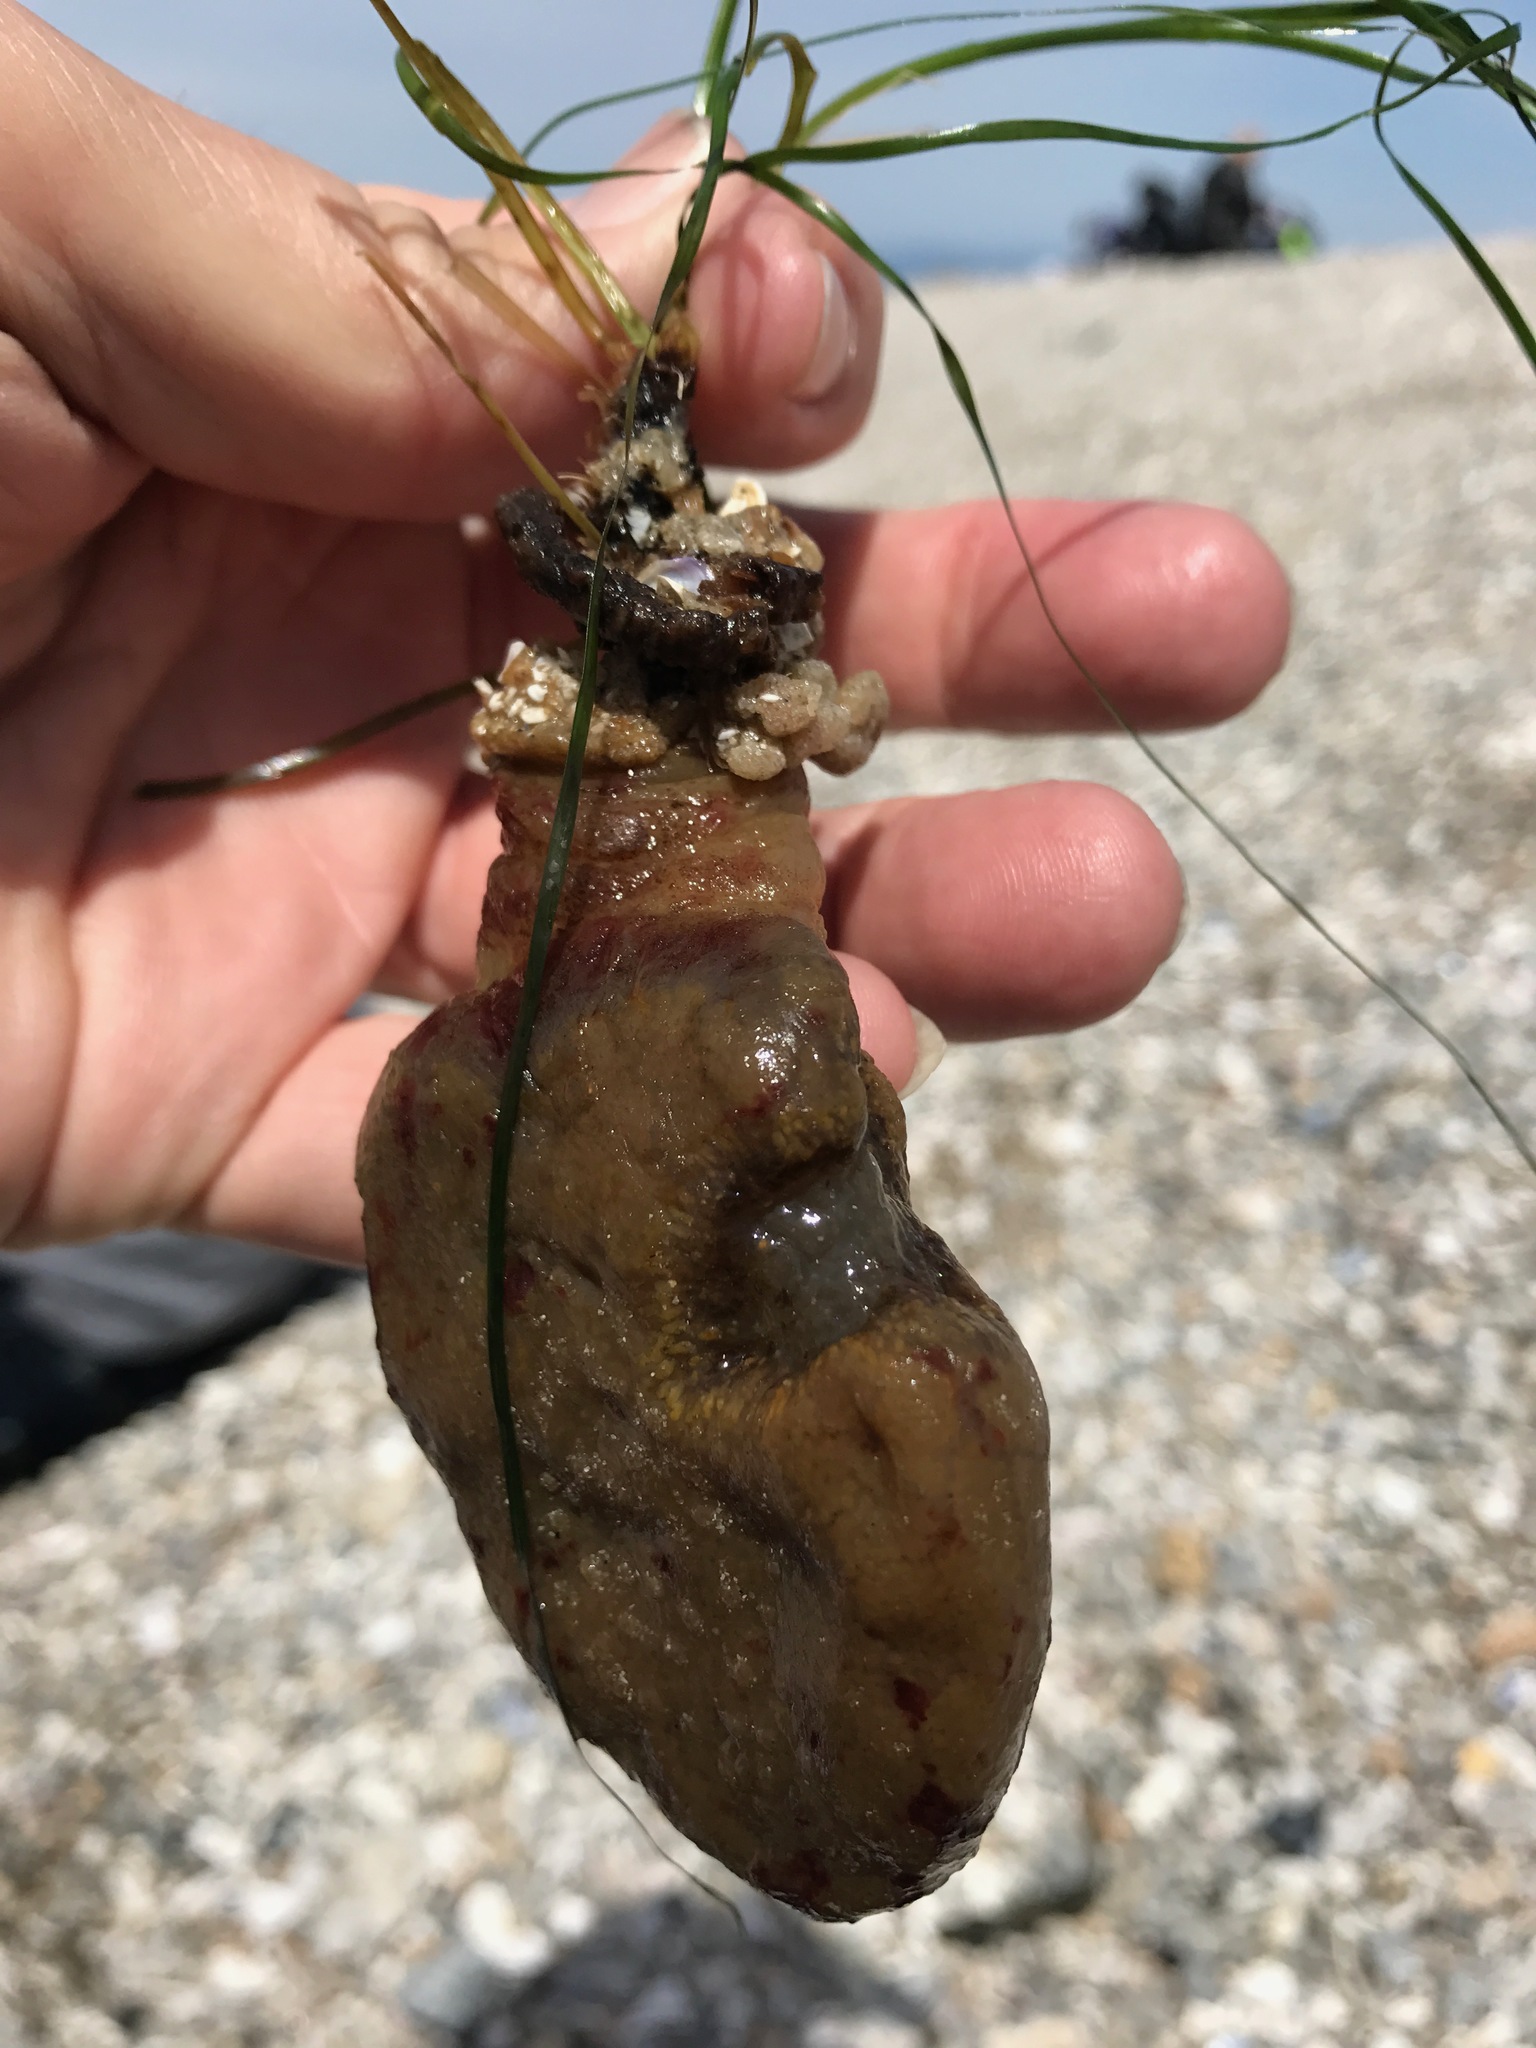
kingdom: Animalia
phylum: Chordata
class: Ascidiacea
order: Aplousobranchia
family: Polyclinidae
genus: Polyclinum
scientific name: Polyclinum planum
